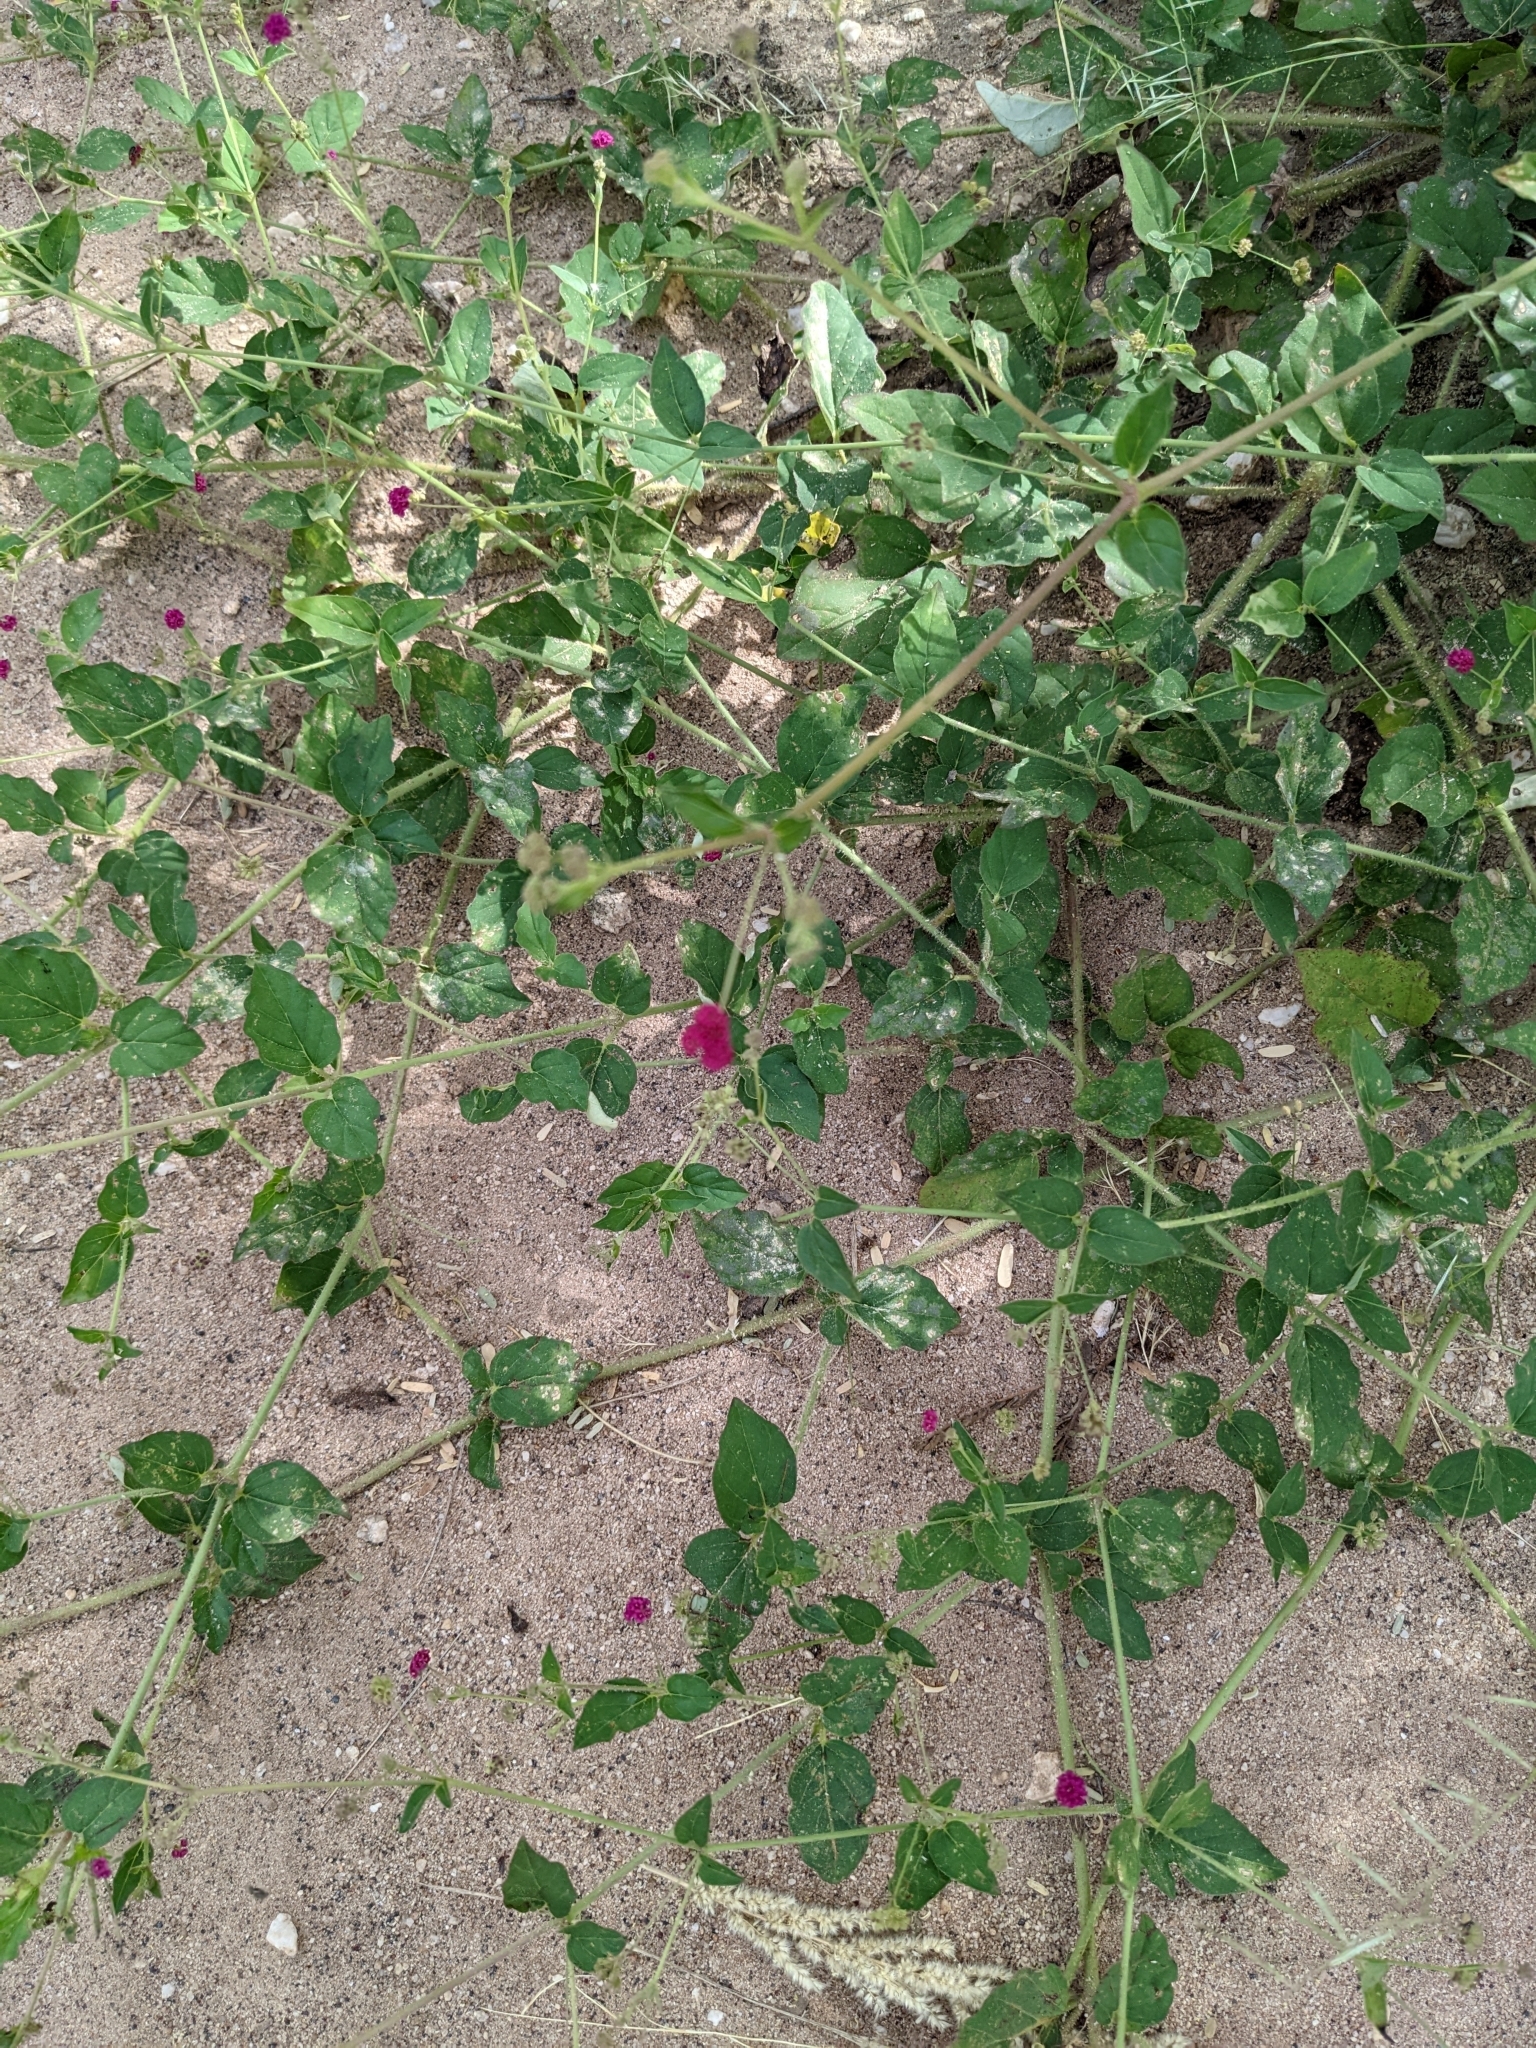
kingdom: Plantae
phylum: Tracheophyta
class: Magnoliopsida
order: Caryophyllales
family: Nyctaginaceae
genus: Boerhavia
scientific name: Boerhavia coccinea
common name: Scarlet spiderling
